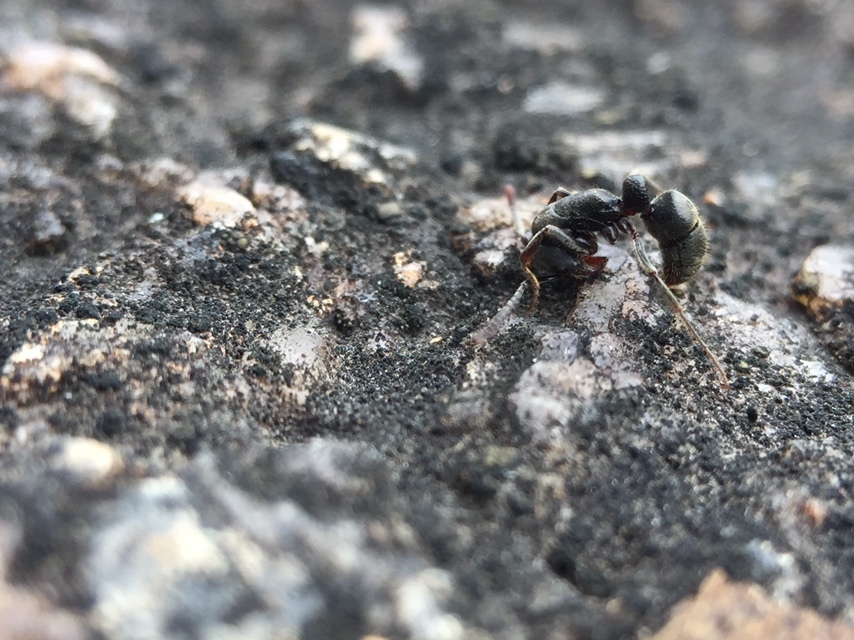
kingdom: Animalia
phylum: Arthropoda
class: Insecta
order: Hymenoptera
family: Formicidae
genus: Bothroponera
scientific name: Bothroponera
